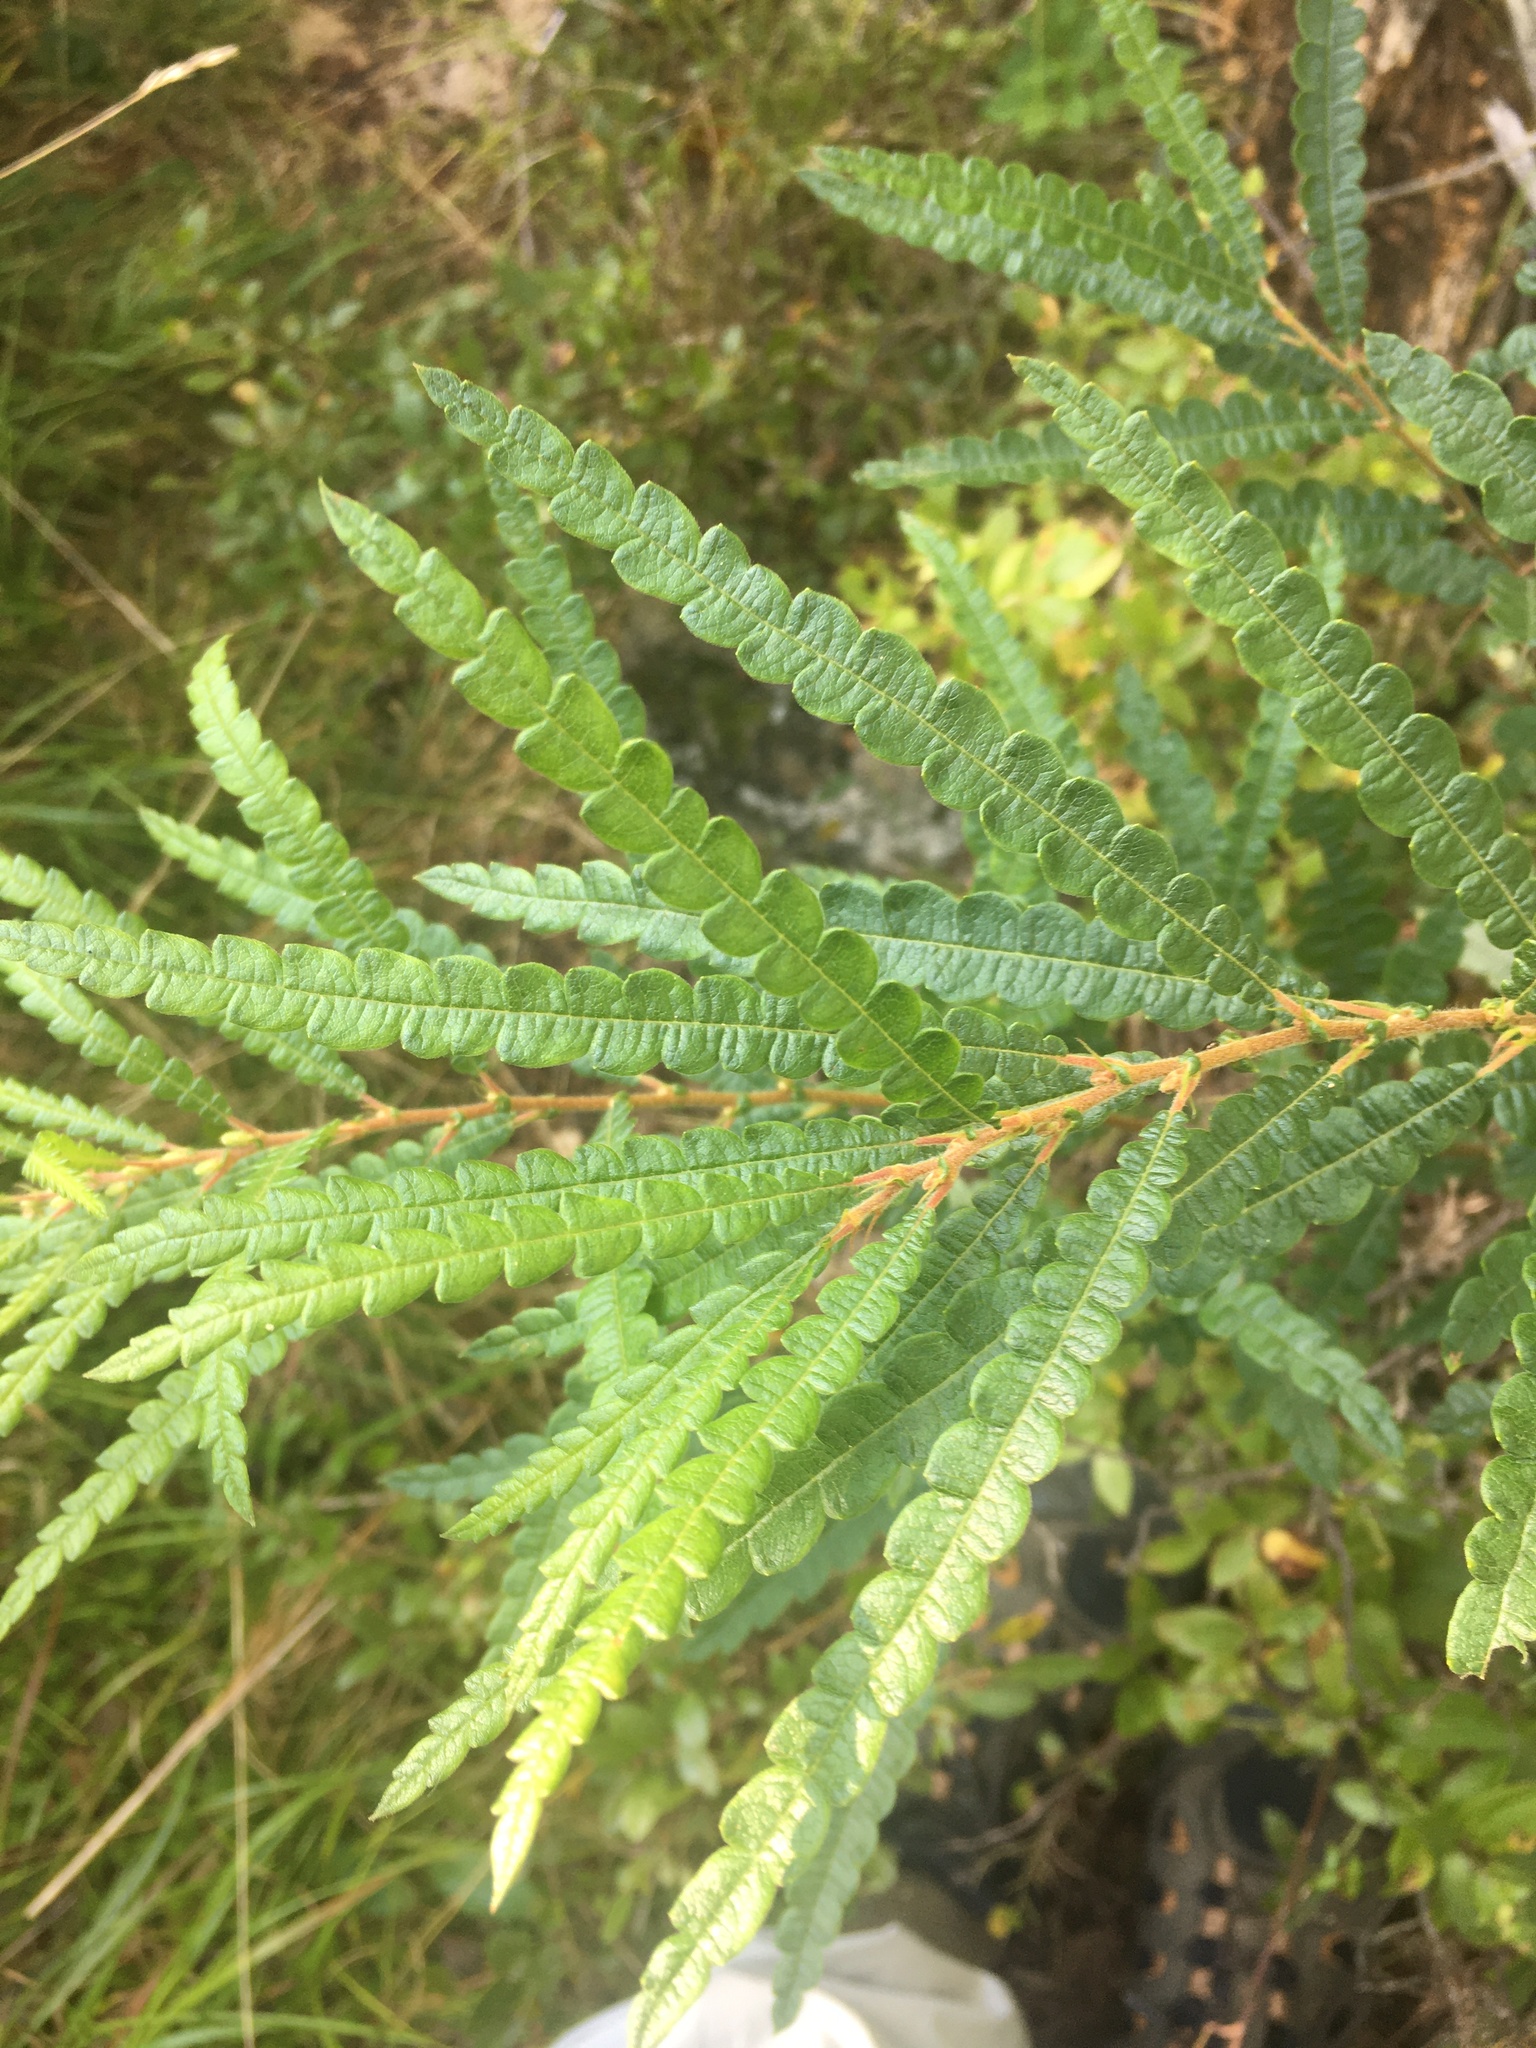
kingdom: Plantae
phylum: Tracheophyta
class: Magnoliopsida
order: Fagales
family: Myricaceae
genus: Comptonia
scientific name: Comptonia peregrina
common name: Sweet-fern
